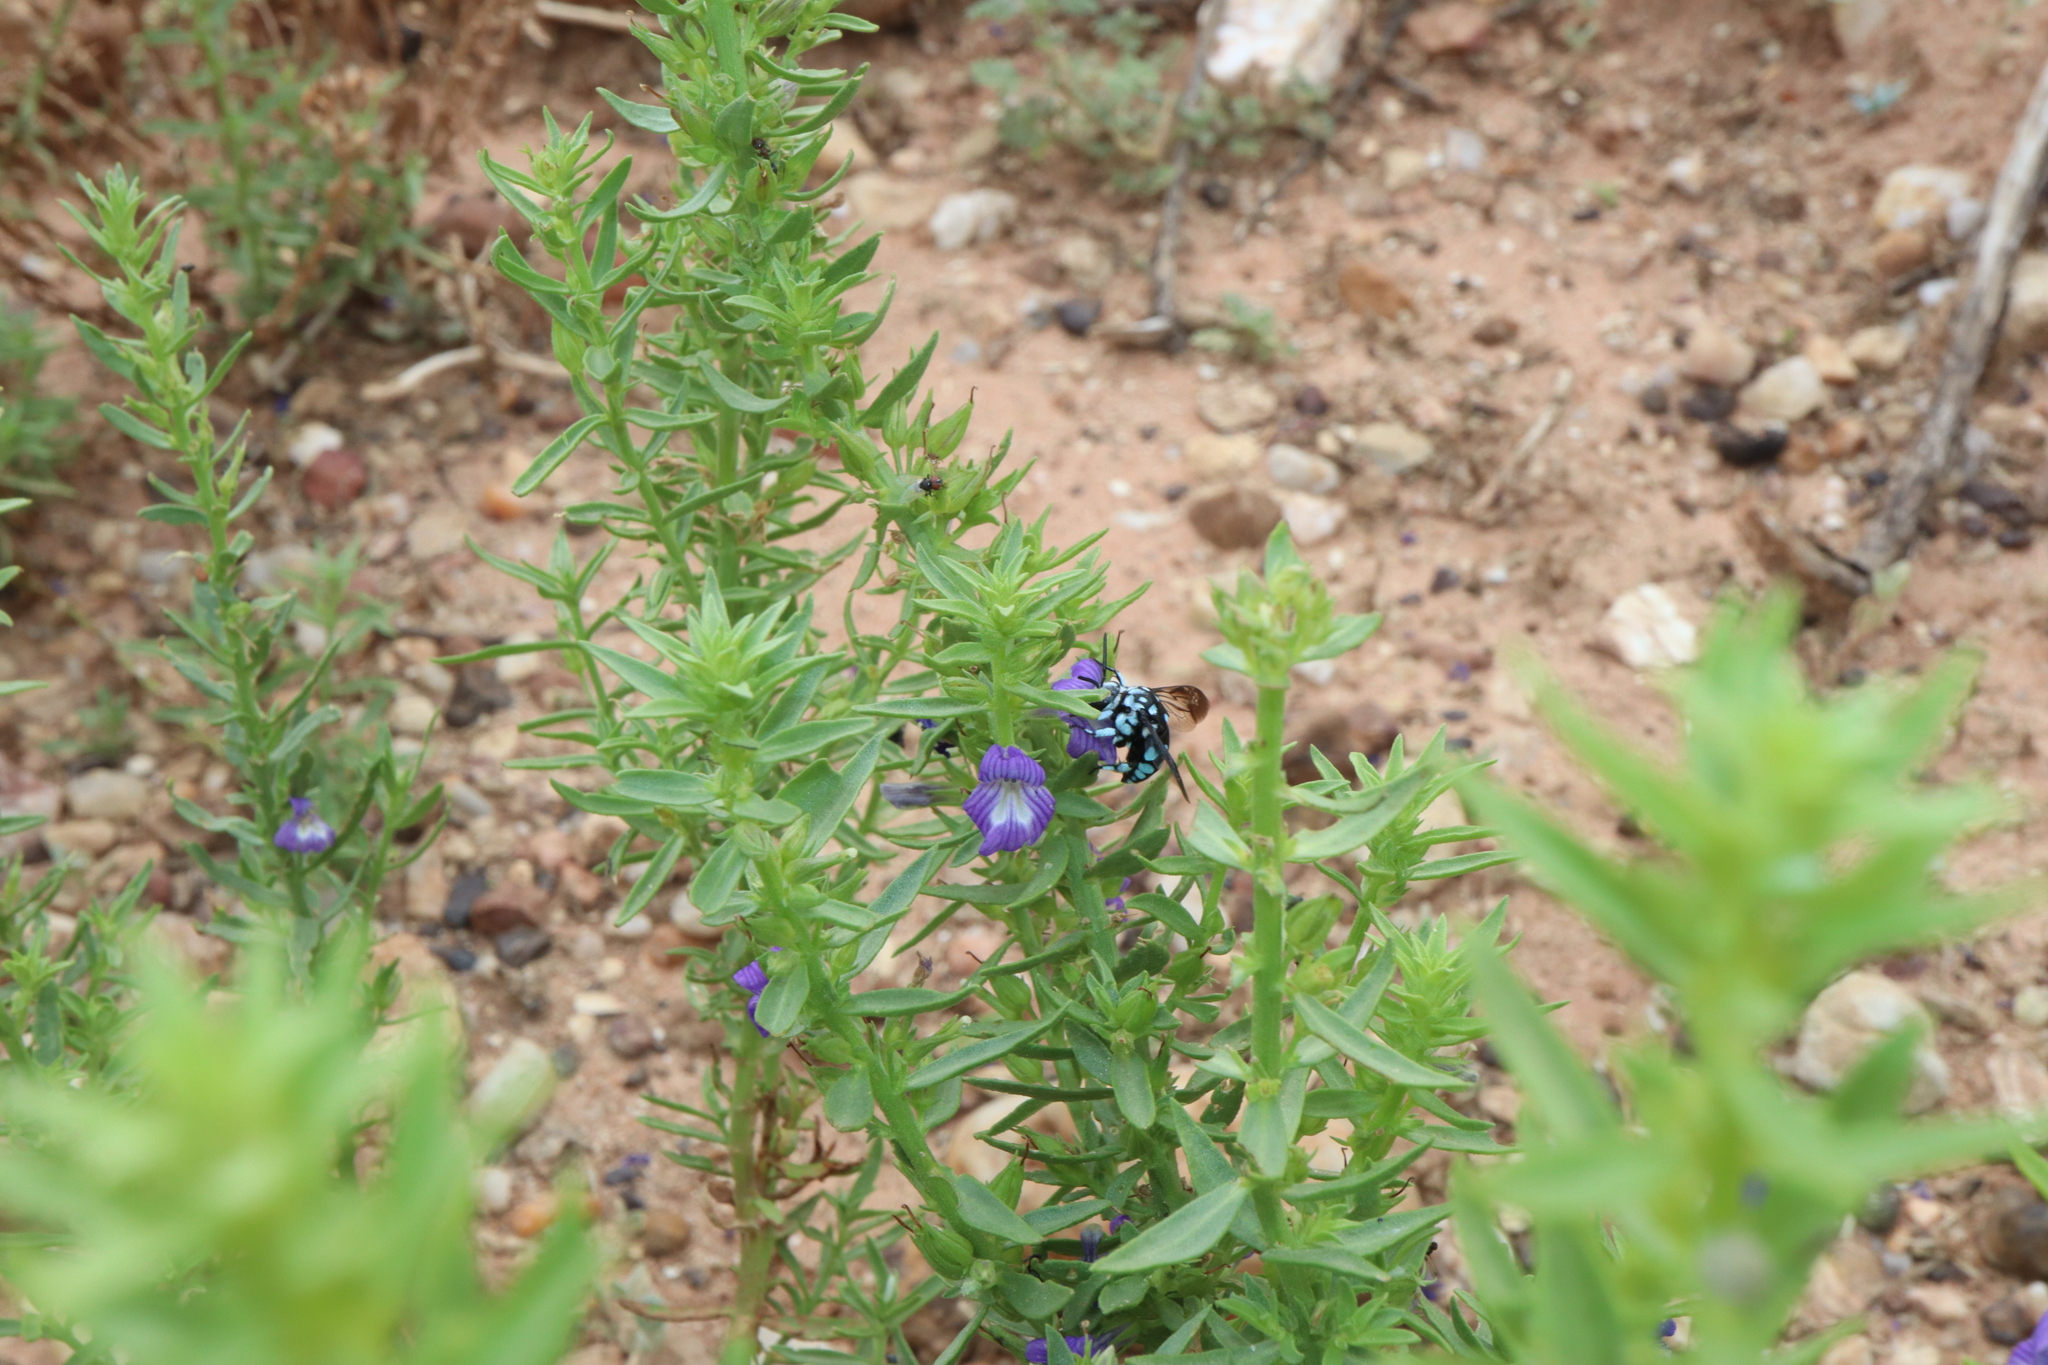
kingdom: Animalia
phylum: Arthropoda
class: Insecta
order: Hymenoptera
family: Apidae
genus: Thyreus
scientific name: Thyreus caeruleopunctatus
